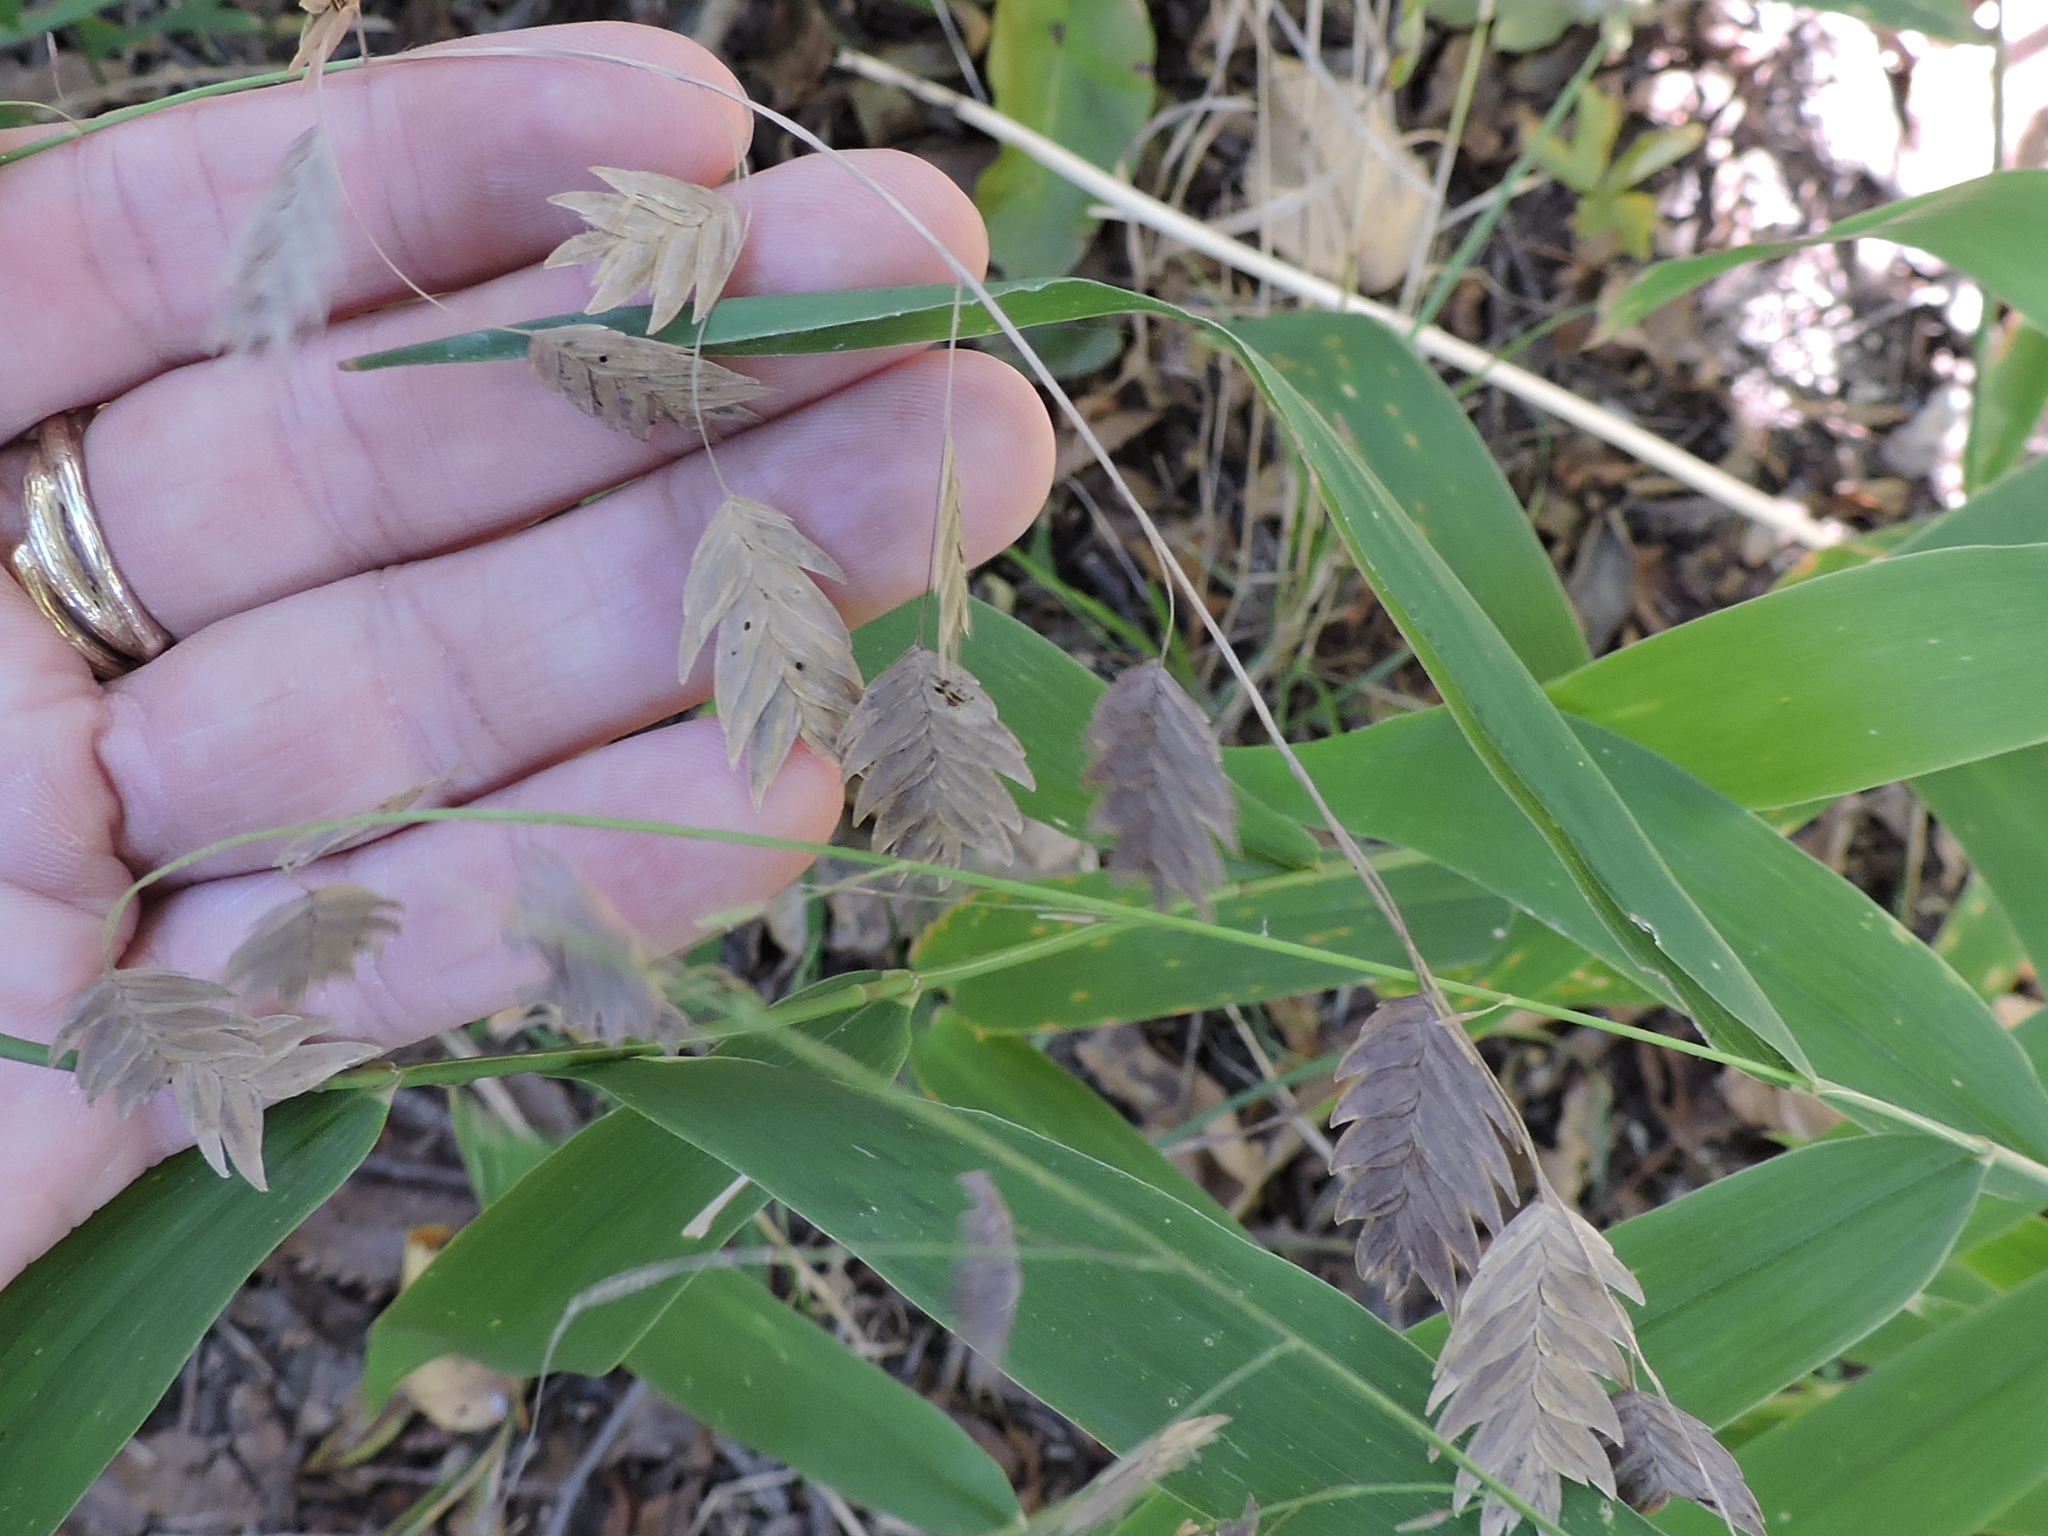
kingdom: Plantae
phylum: Tracheophyta
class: Liliopsida
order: Poales
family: Poaceae
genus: Chasmanthium
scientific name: Chasmanthium latifolium
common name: Broad-leaved chasmanthium
